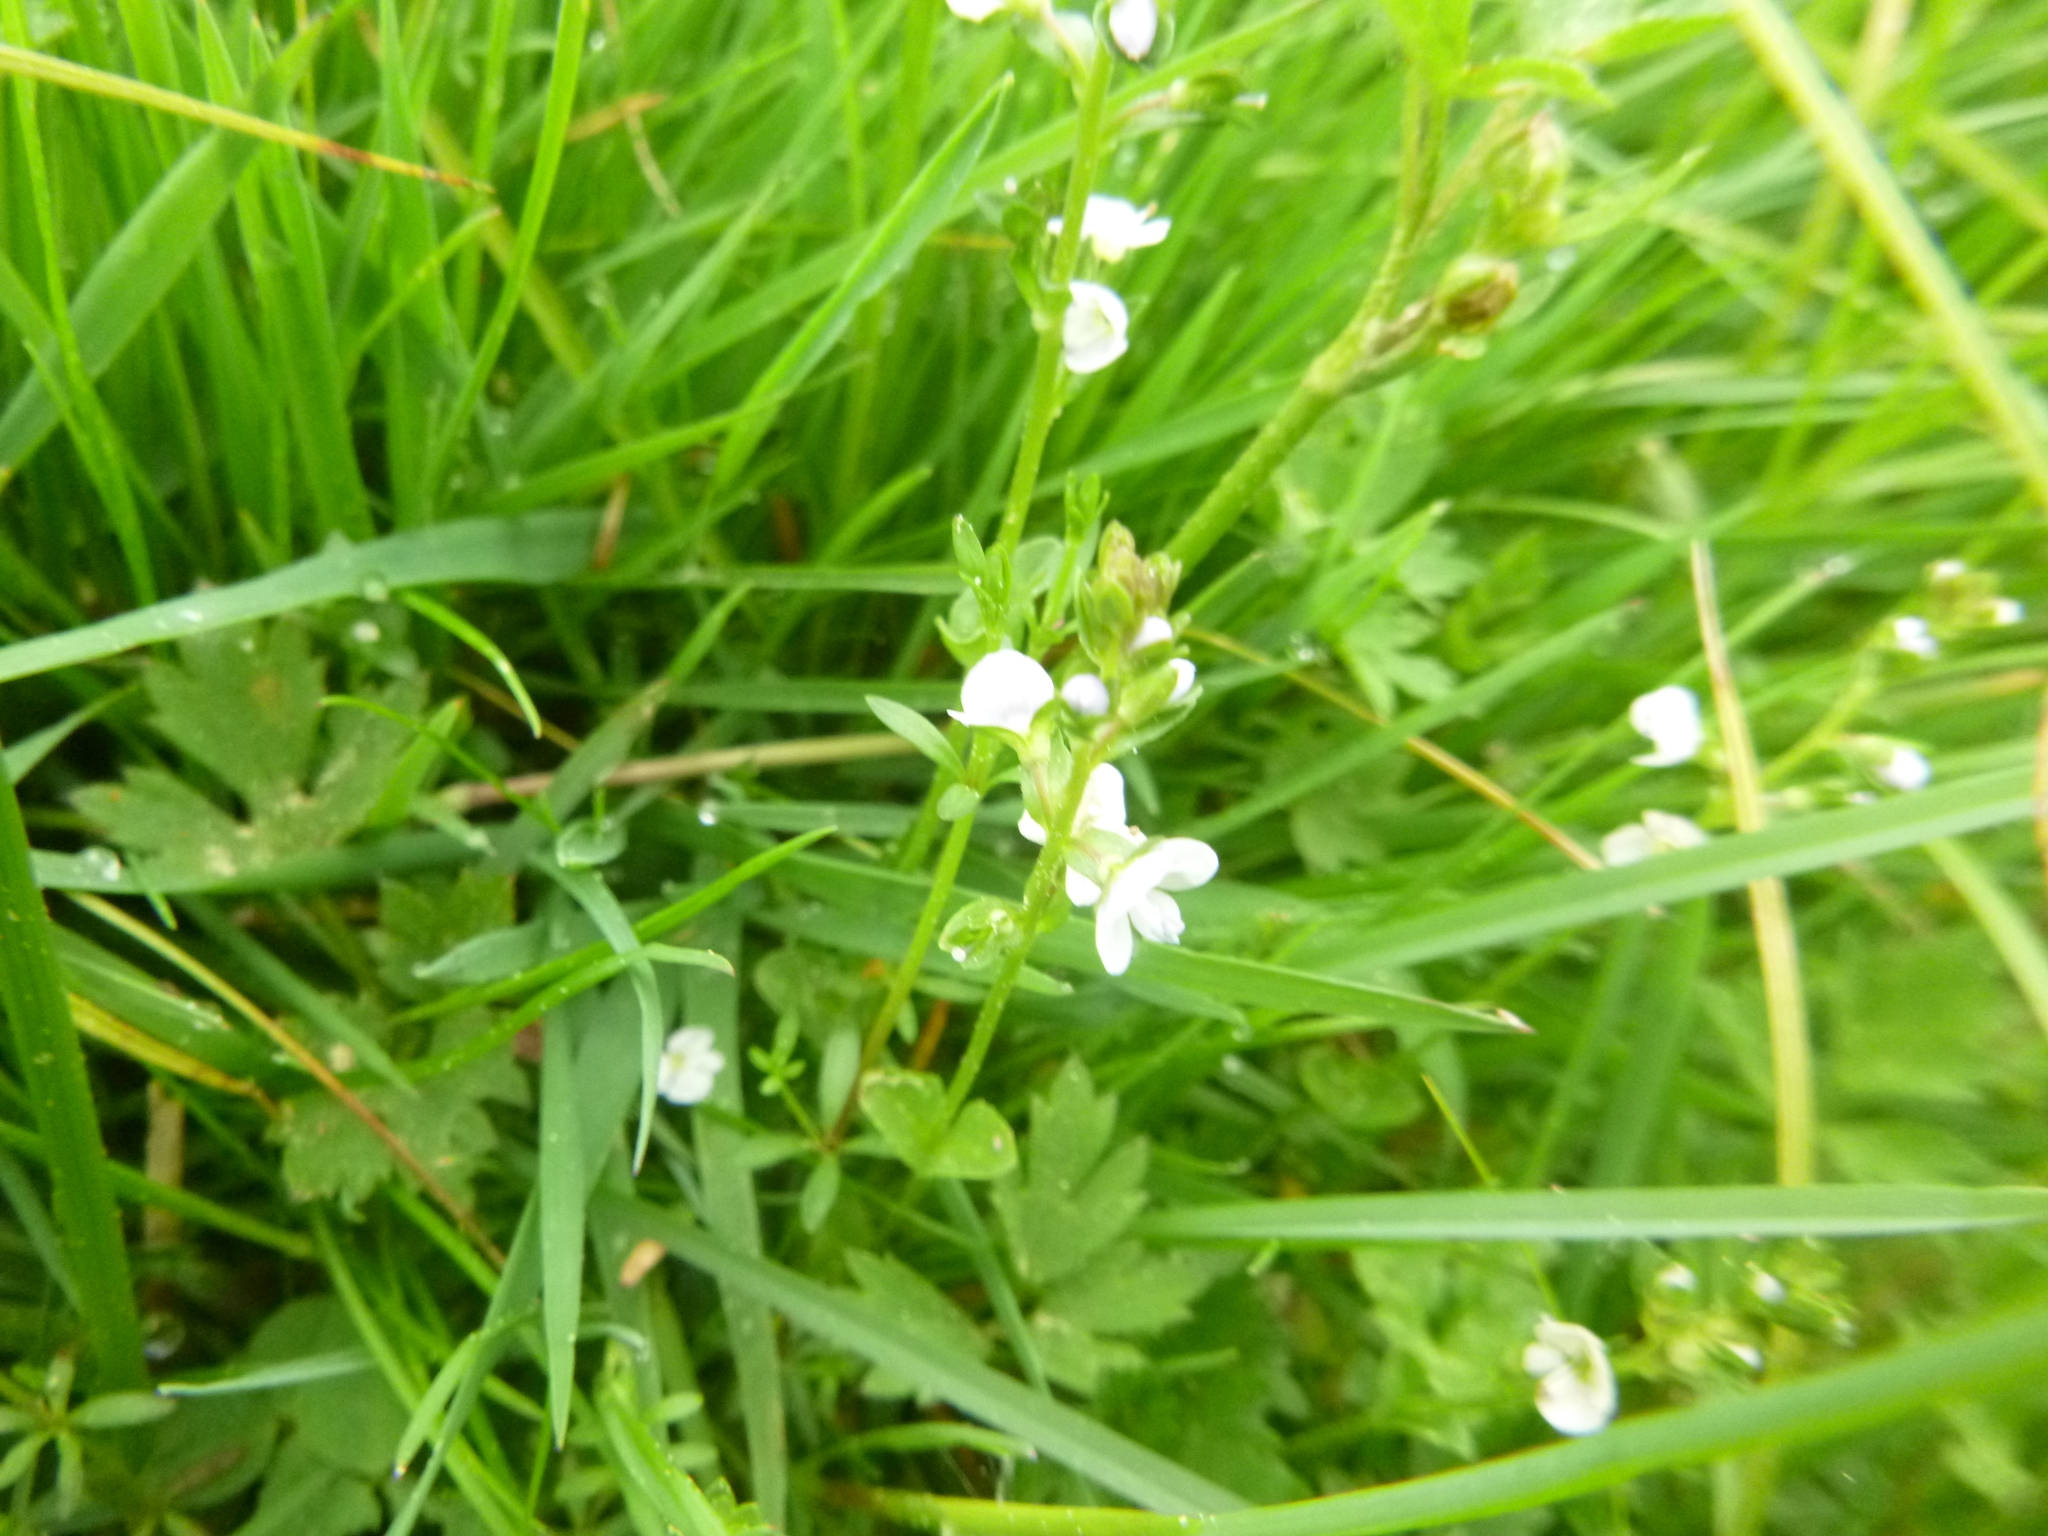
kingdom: Plantae
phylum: Tracheophyta
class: Magnoliopsida
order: Lamiales
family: Plantaginaceae
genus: Veronica
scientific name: Veronica serpyllifolia
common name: Thyme-leaved speedwell
